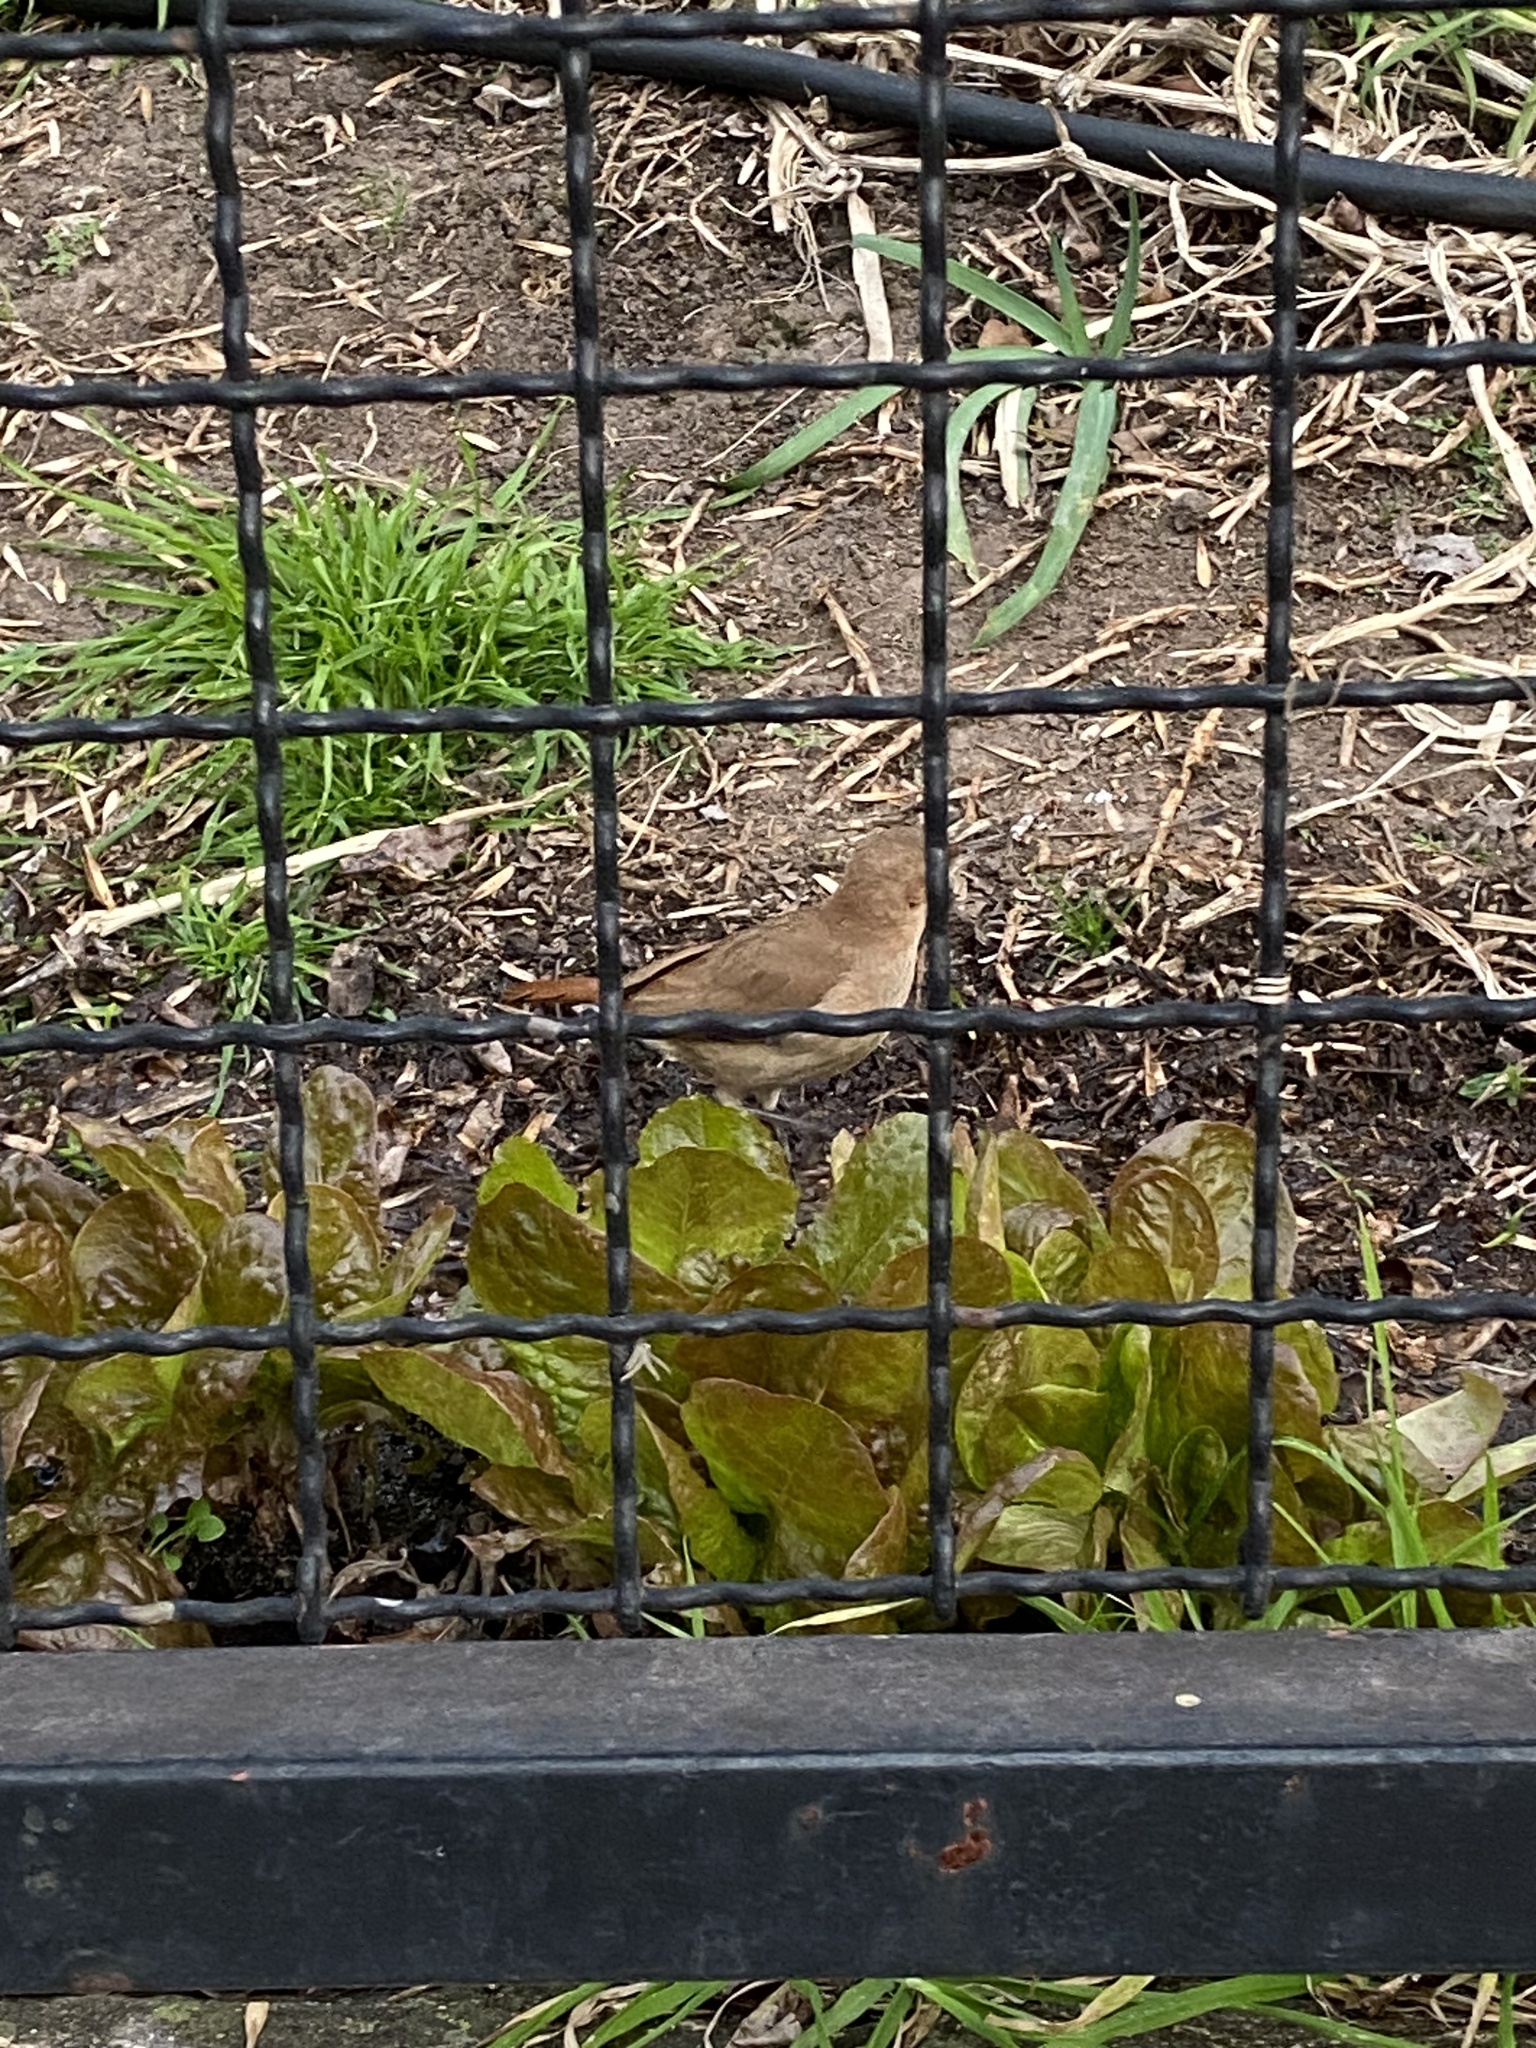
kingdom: Animalia
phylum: Chordata
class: Aves
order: Passeriformes
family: Furnariidae
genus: Furnarius
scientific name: Furnarius rufus
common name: Rufous hornero
